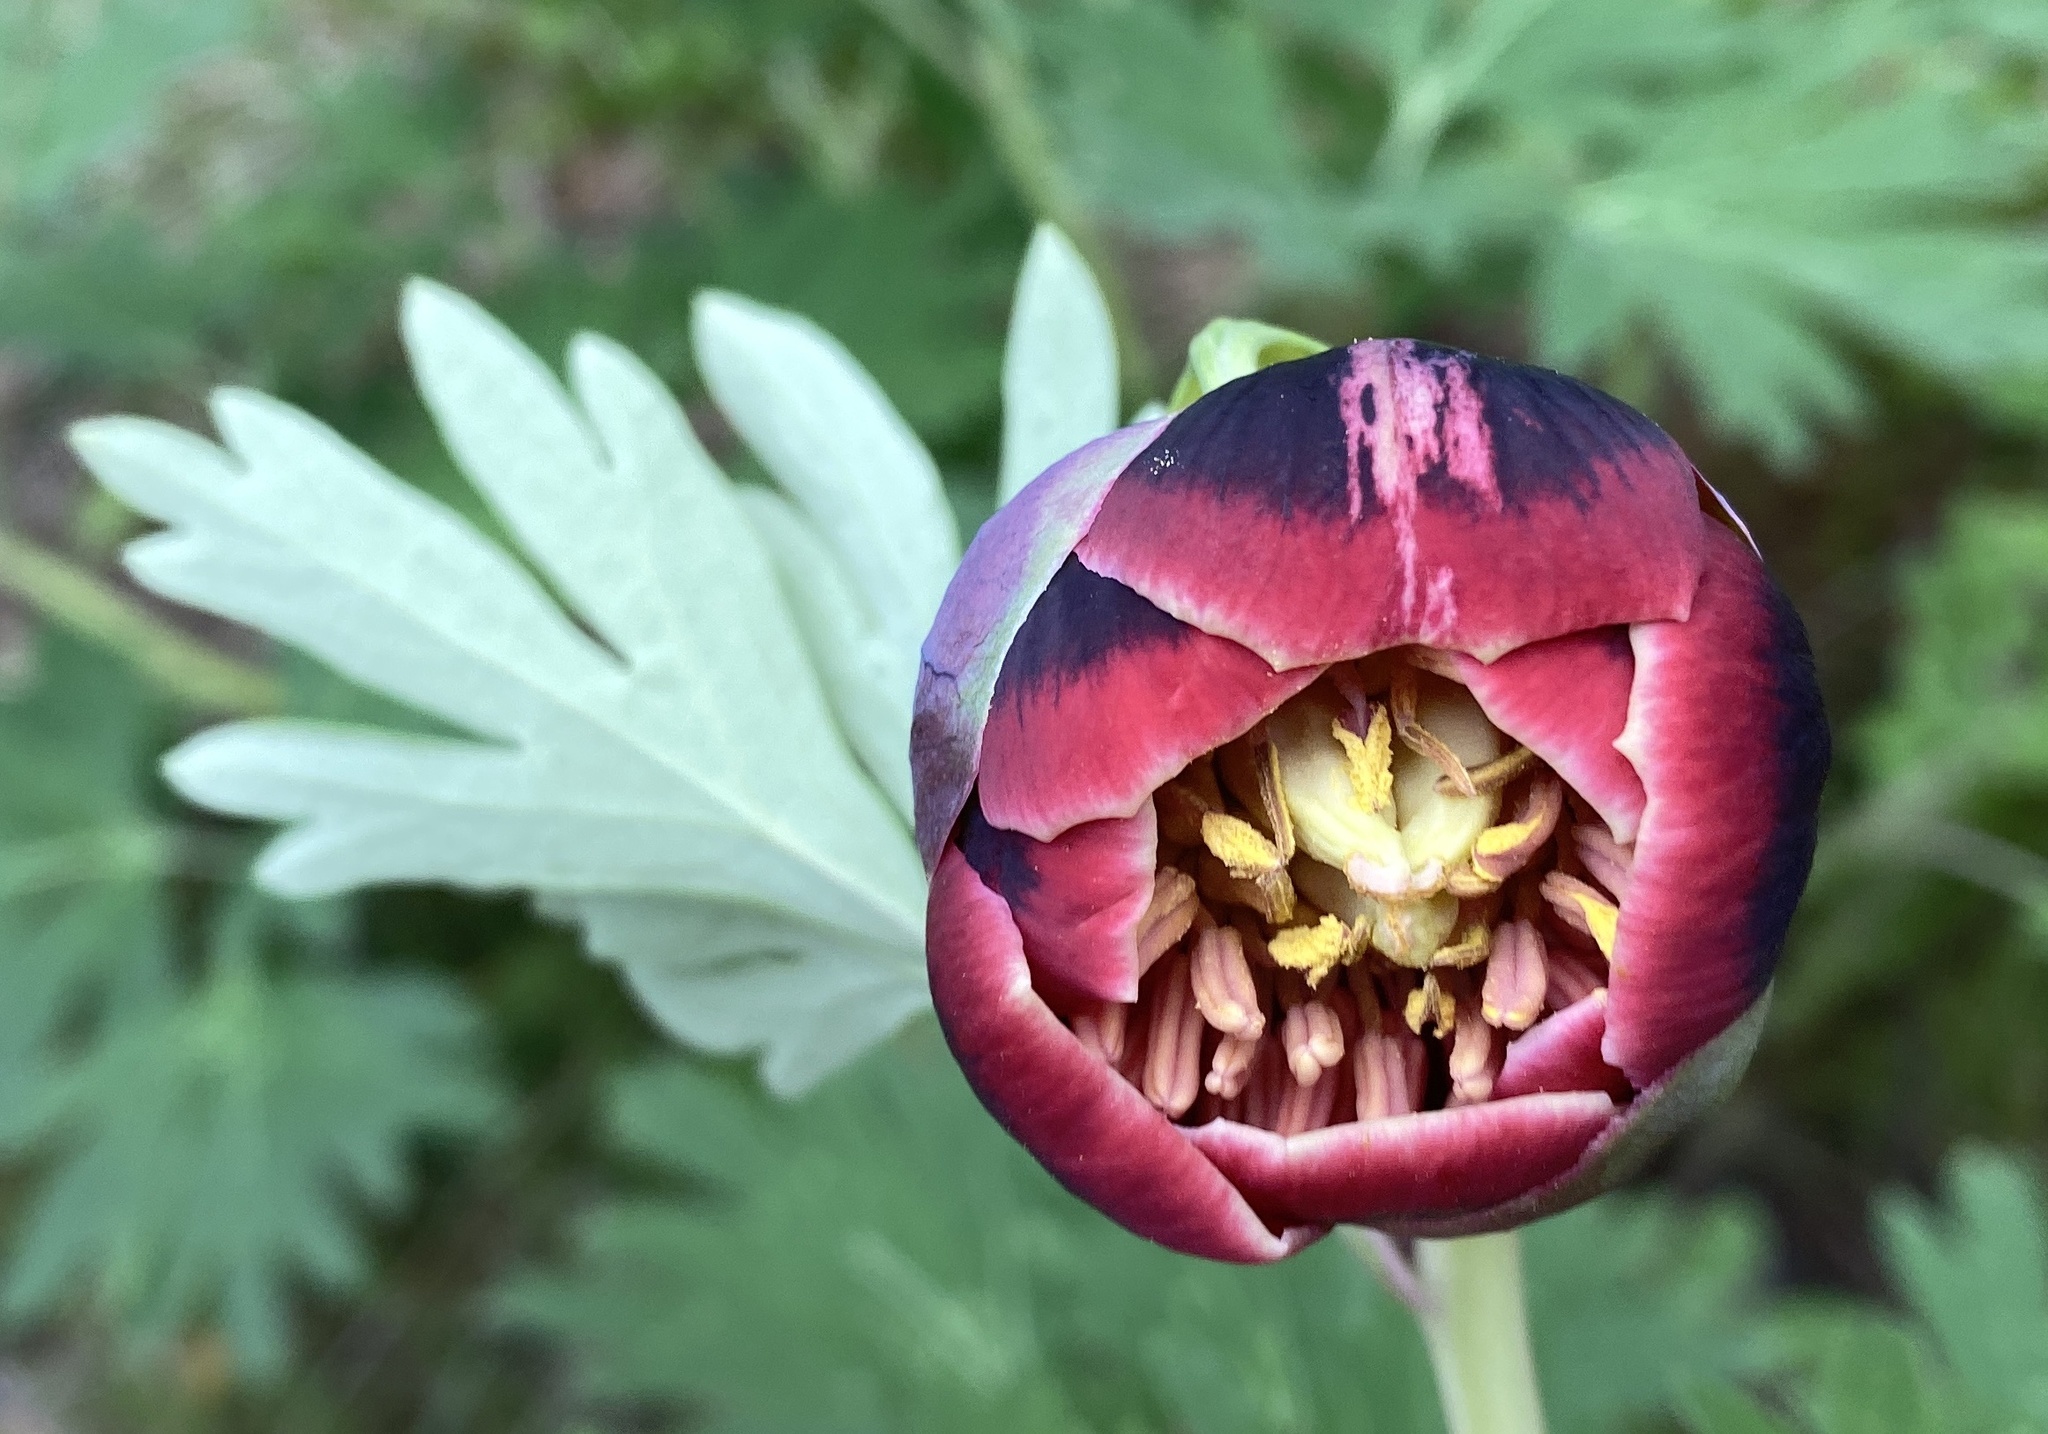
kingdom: Plantae
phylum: Tracheophyta
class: Magnoliopsida
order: Saxifragales
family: Paeoniaceae
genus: Paeonia
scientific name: Paeonia californica
